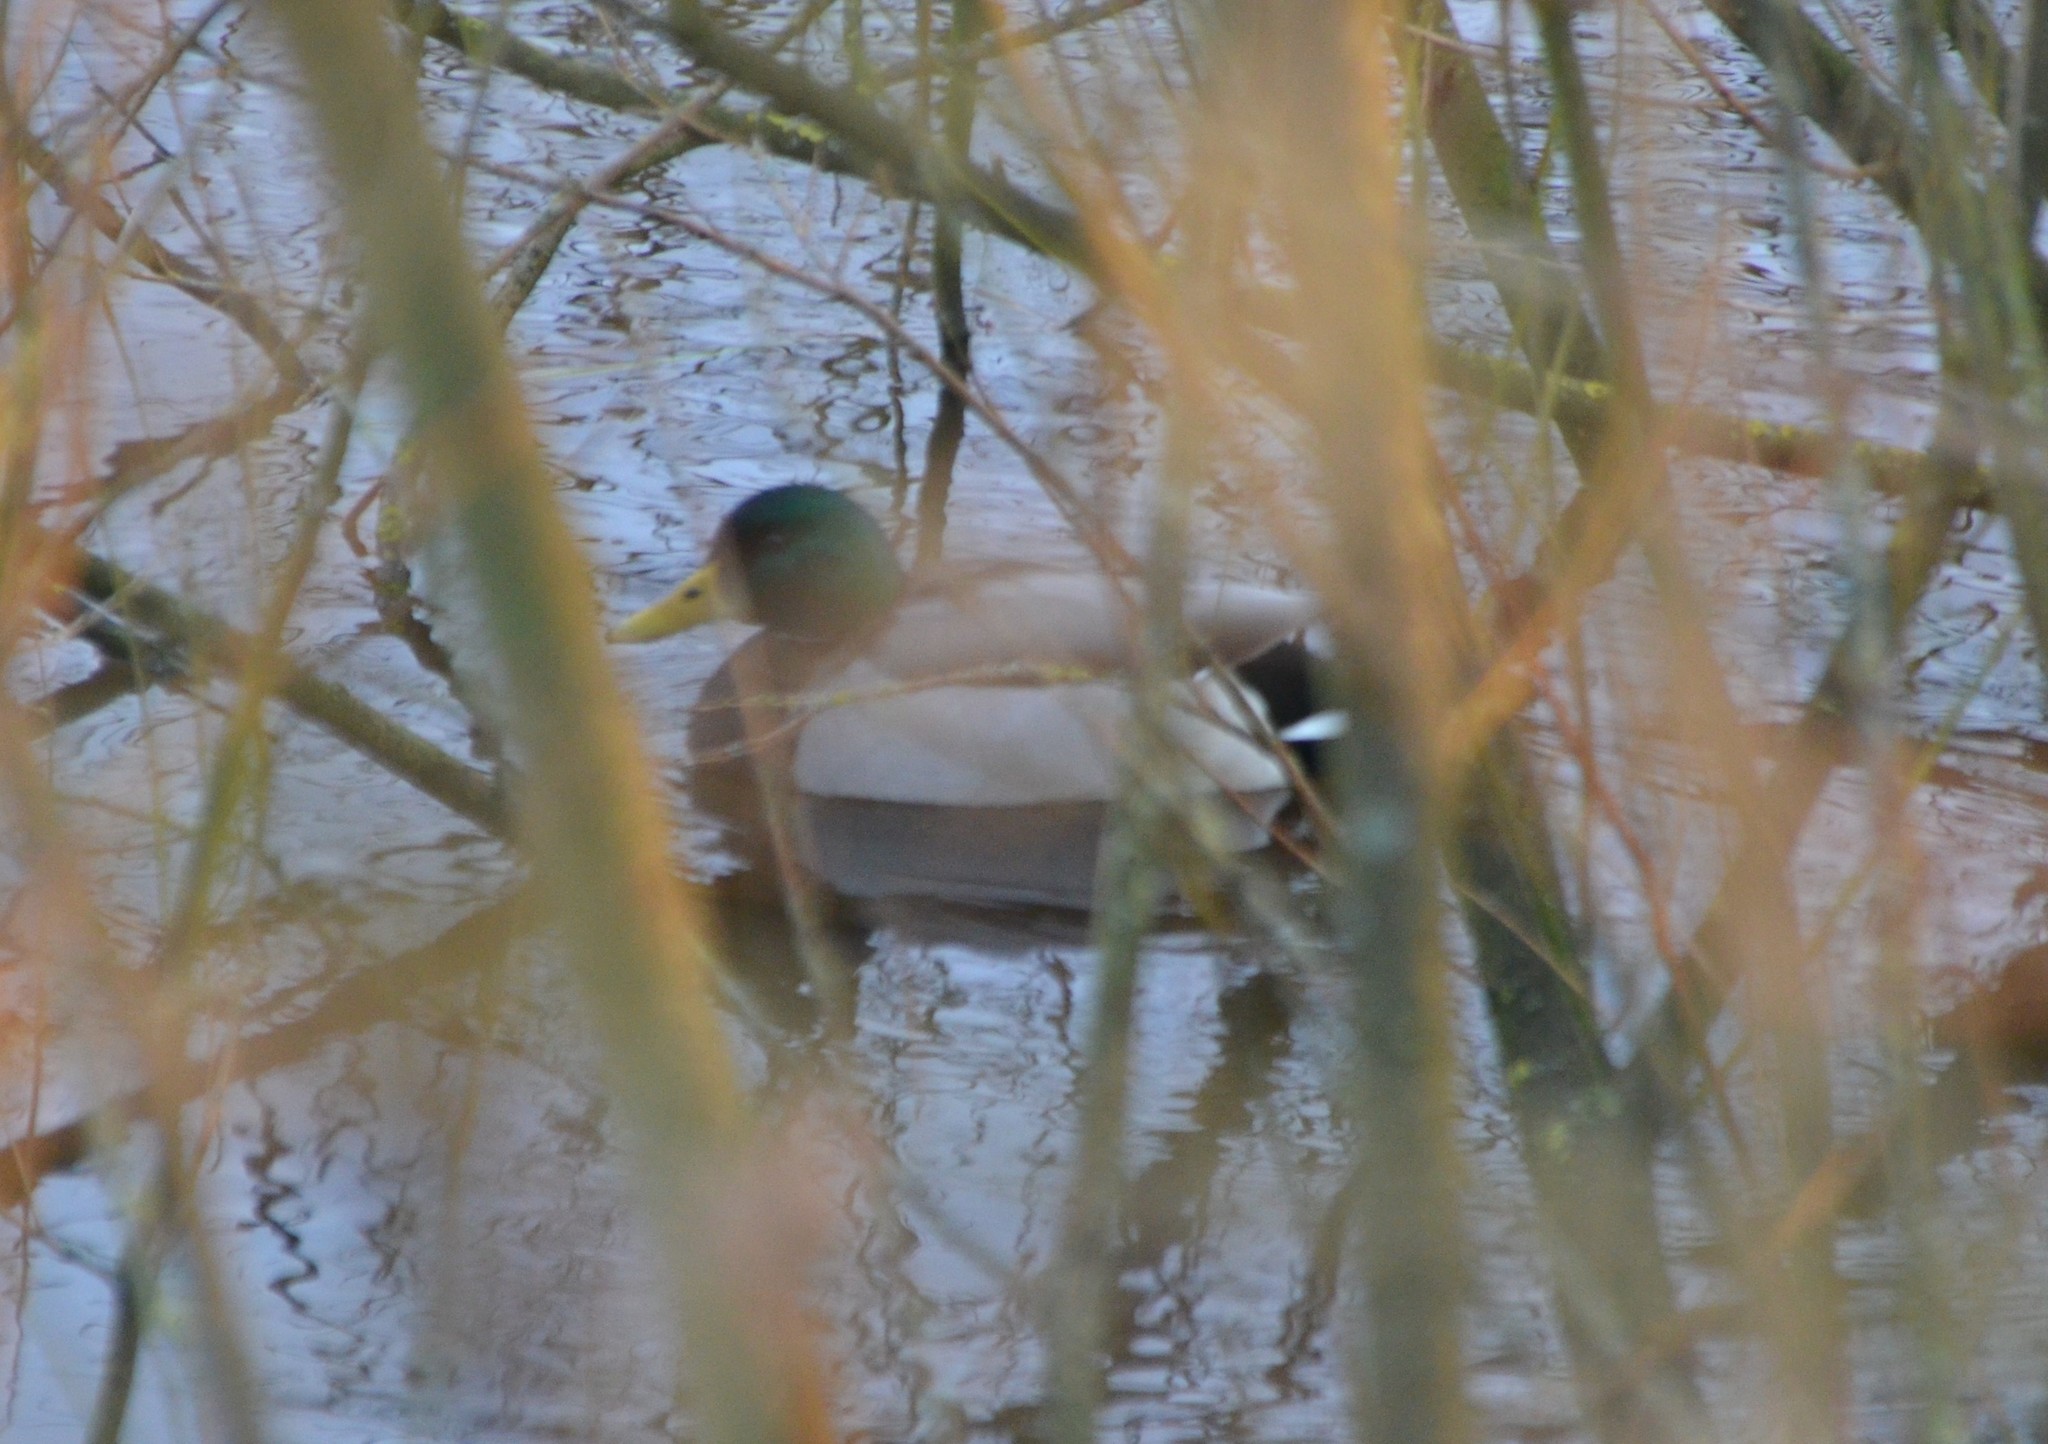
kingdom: Animalia
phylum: Chordata
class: Aves
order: Anseriformes
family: Anatidae
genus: Anas
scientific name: Anas platyrhynchos
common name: Mallard
